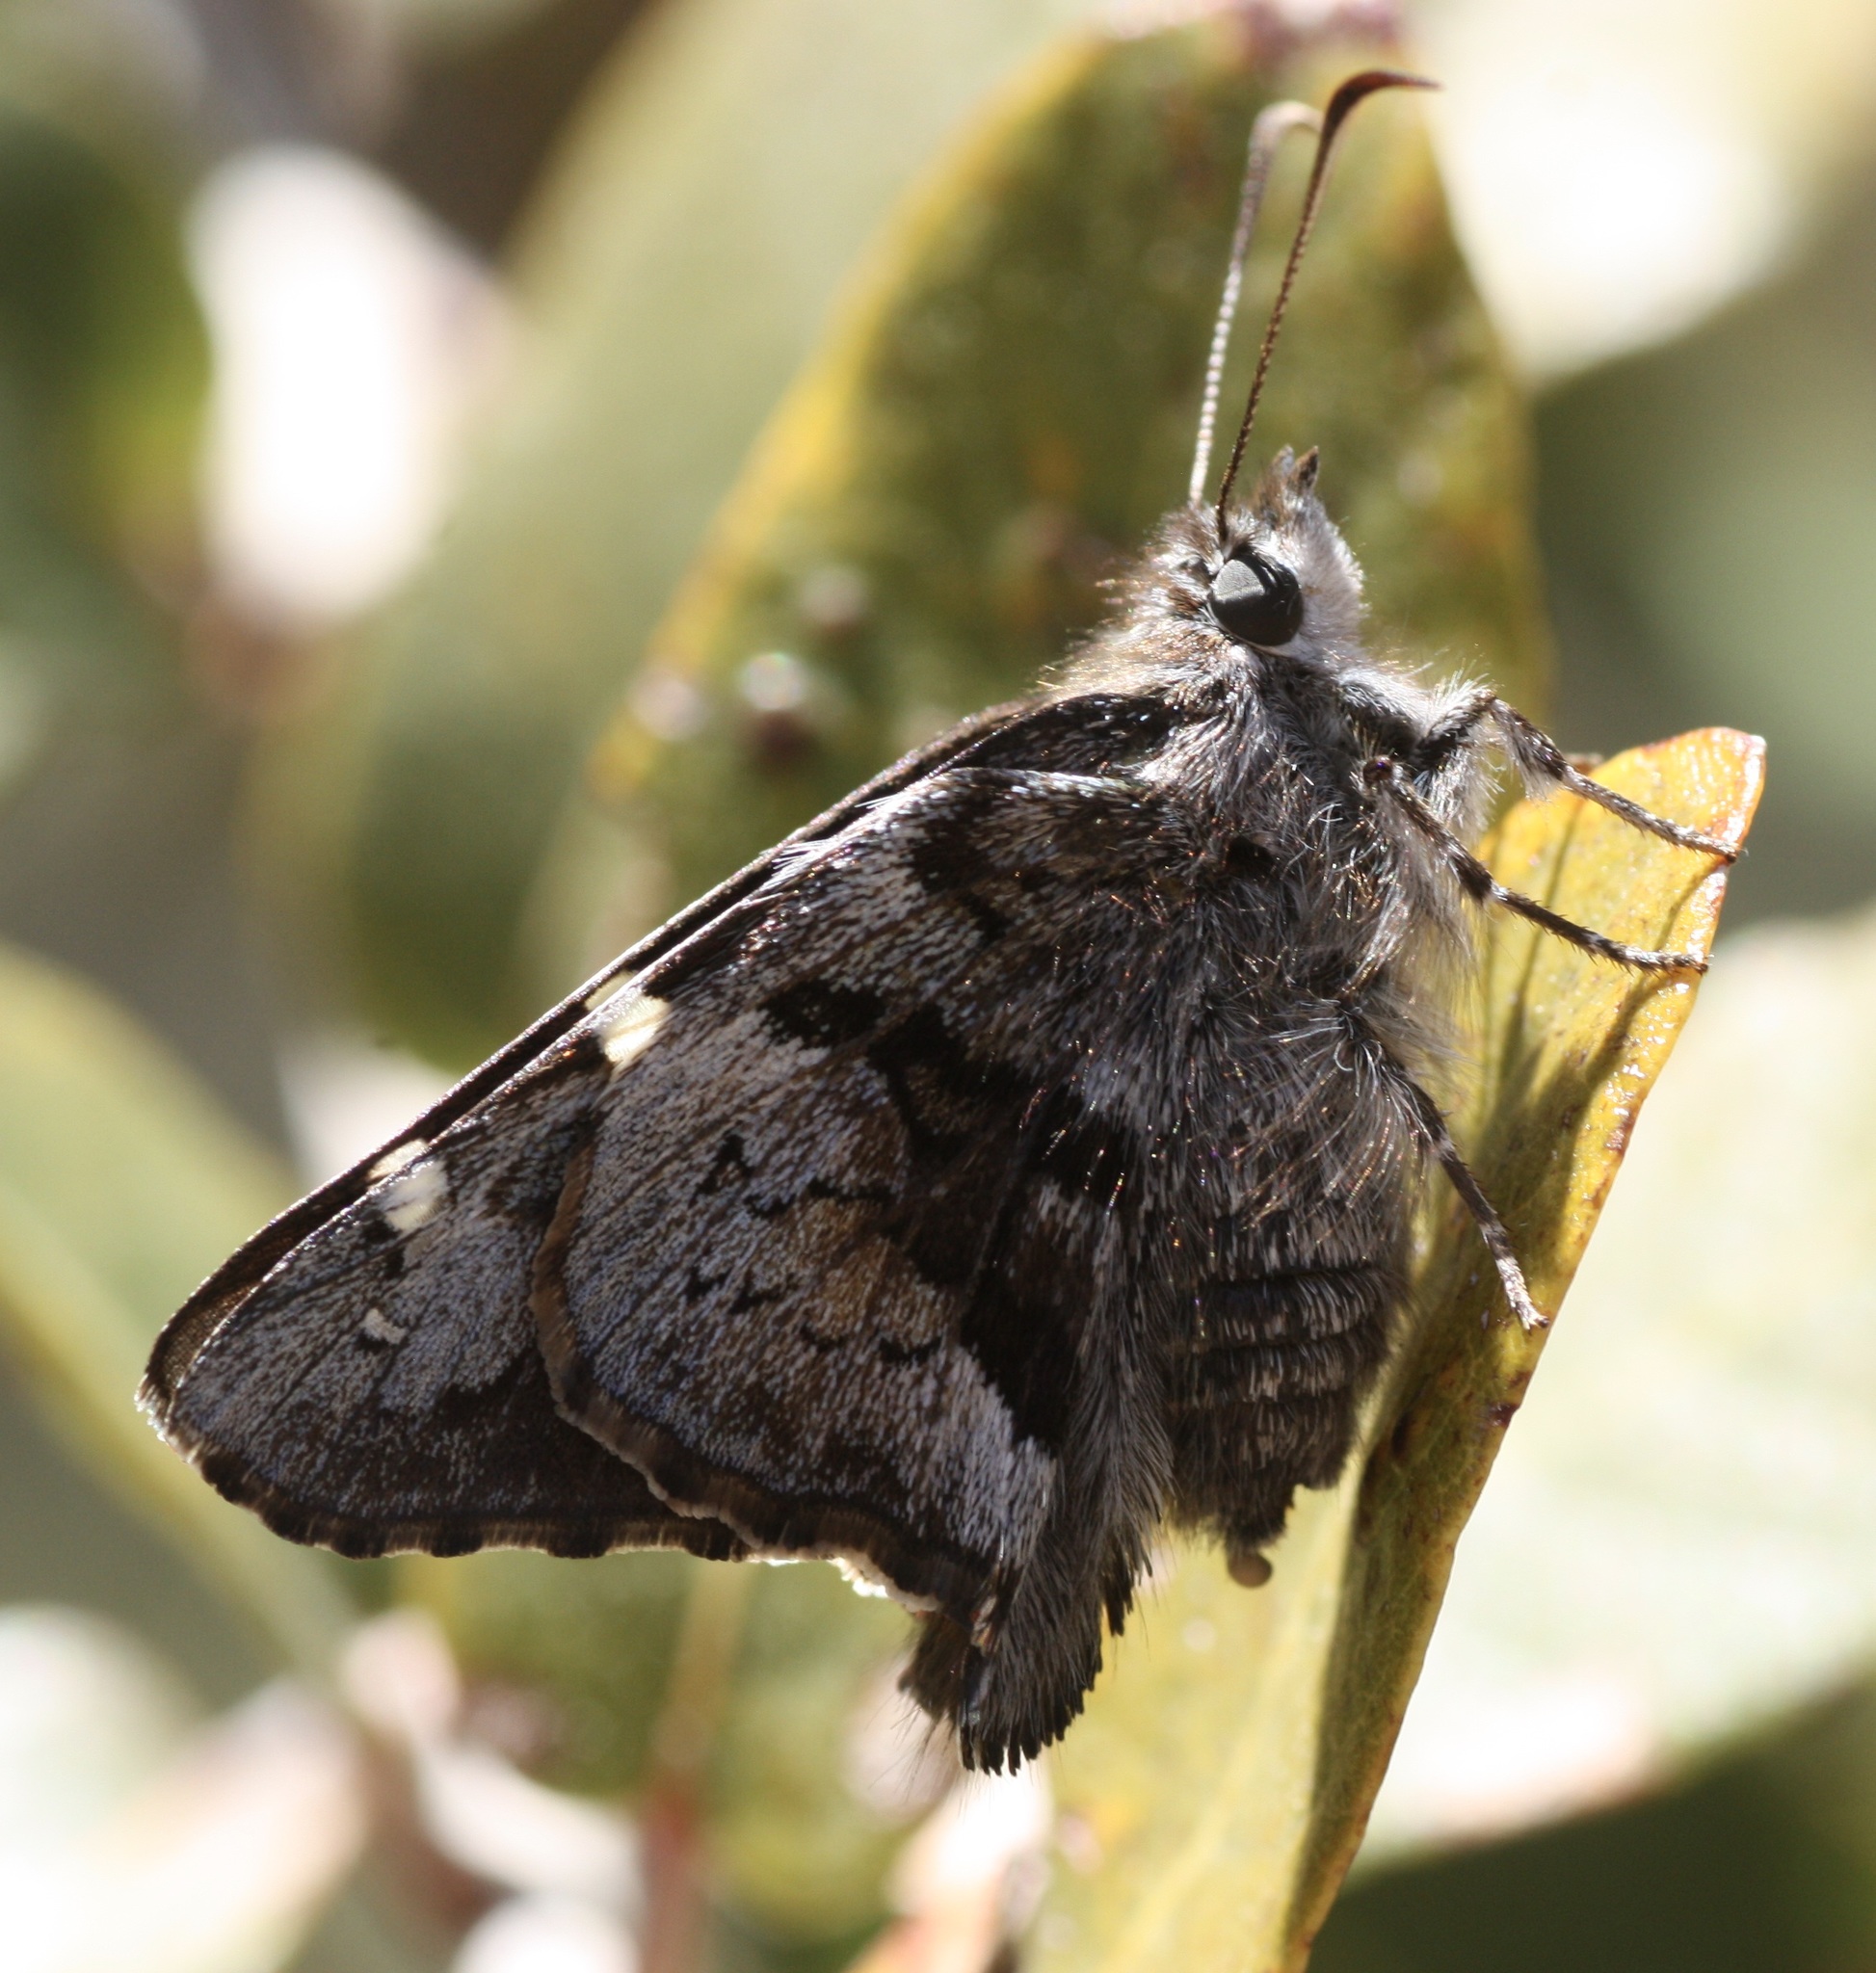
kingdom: Animalia
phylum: Arthropoda
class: Insecta
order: Lepidoptera
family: Hesperiidae
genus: Zestusa
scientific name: Zestusa dorus
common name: Short-tailed skipper
